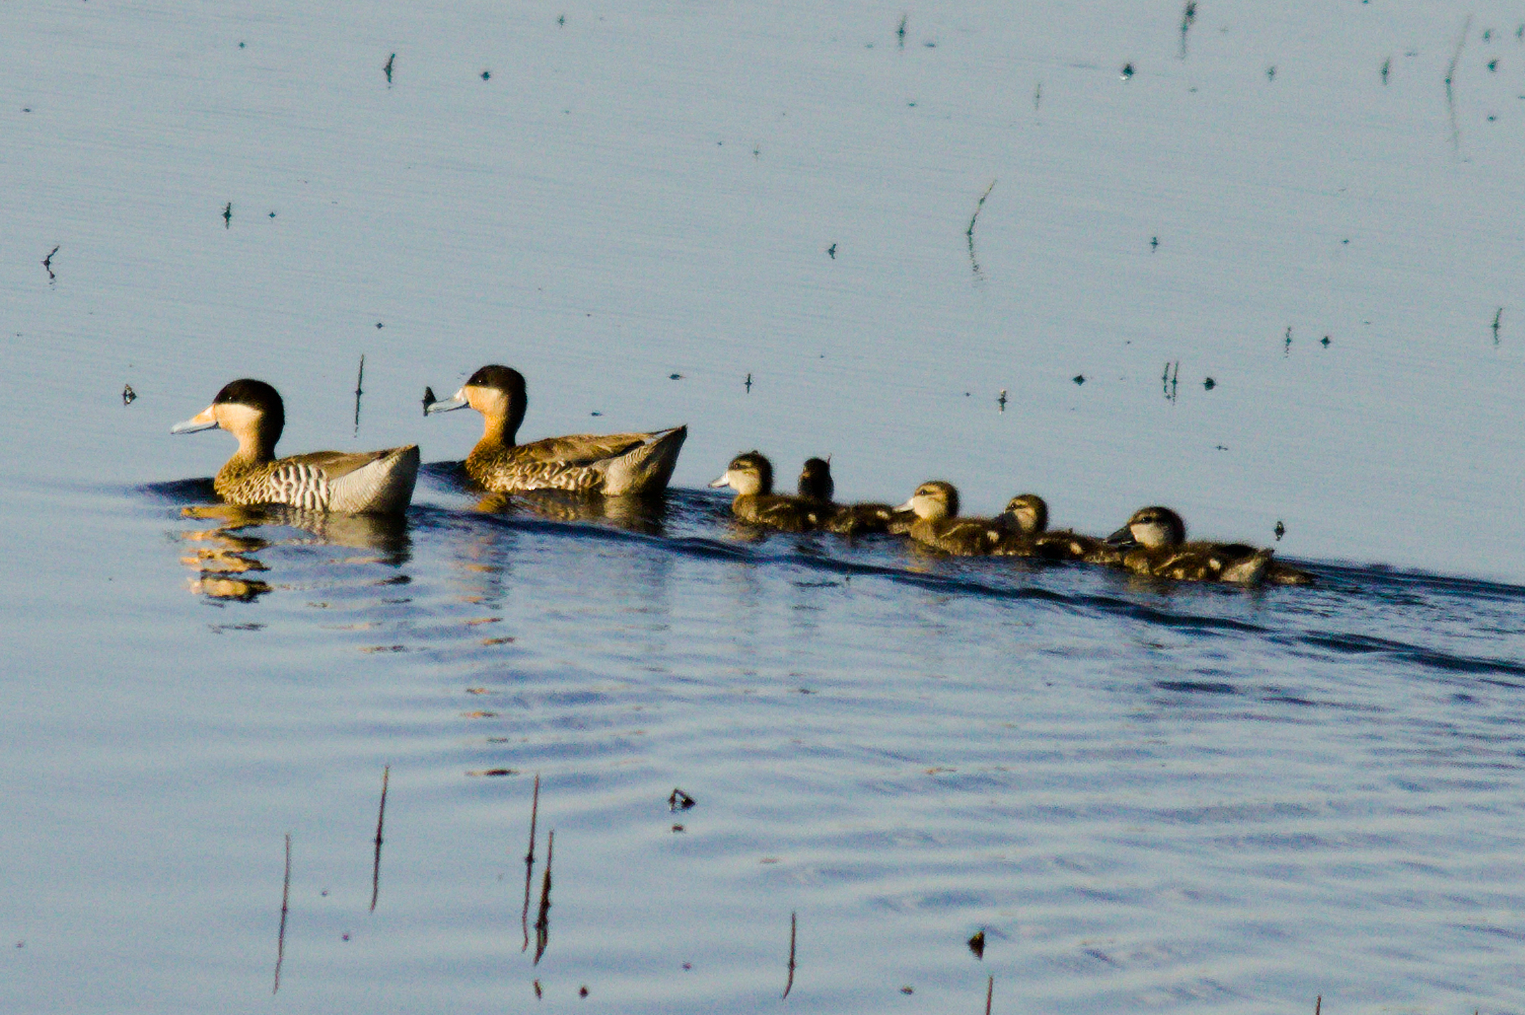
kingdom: Animalia
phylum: Chordata
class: Aves
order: Anseriformes
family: Anatidae
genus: Spatula
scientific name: Spatula versicolor
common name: Silver teal
